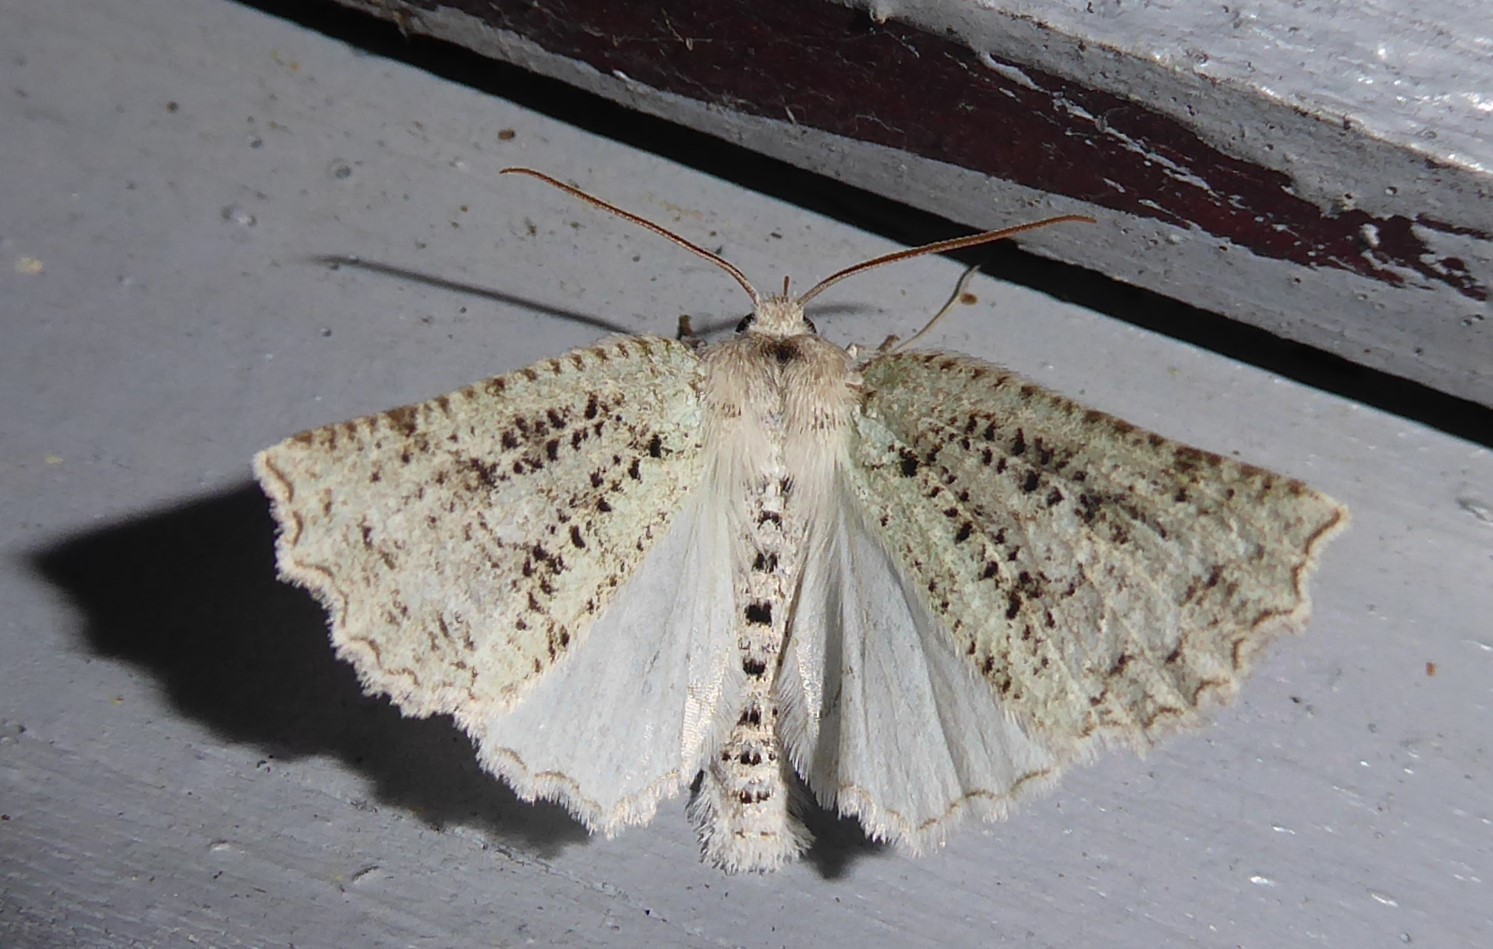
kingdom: Animalia
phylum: Arthropoda
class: Insecta
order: Lepidoptera
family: Geometridae
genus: Declana
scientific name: Declana floccosa
